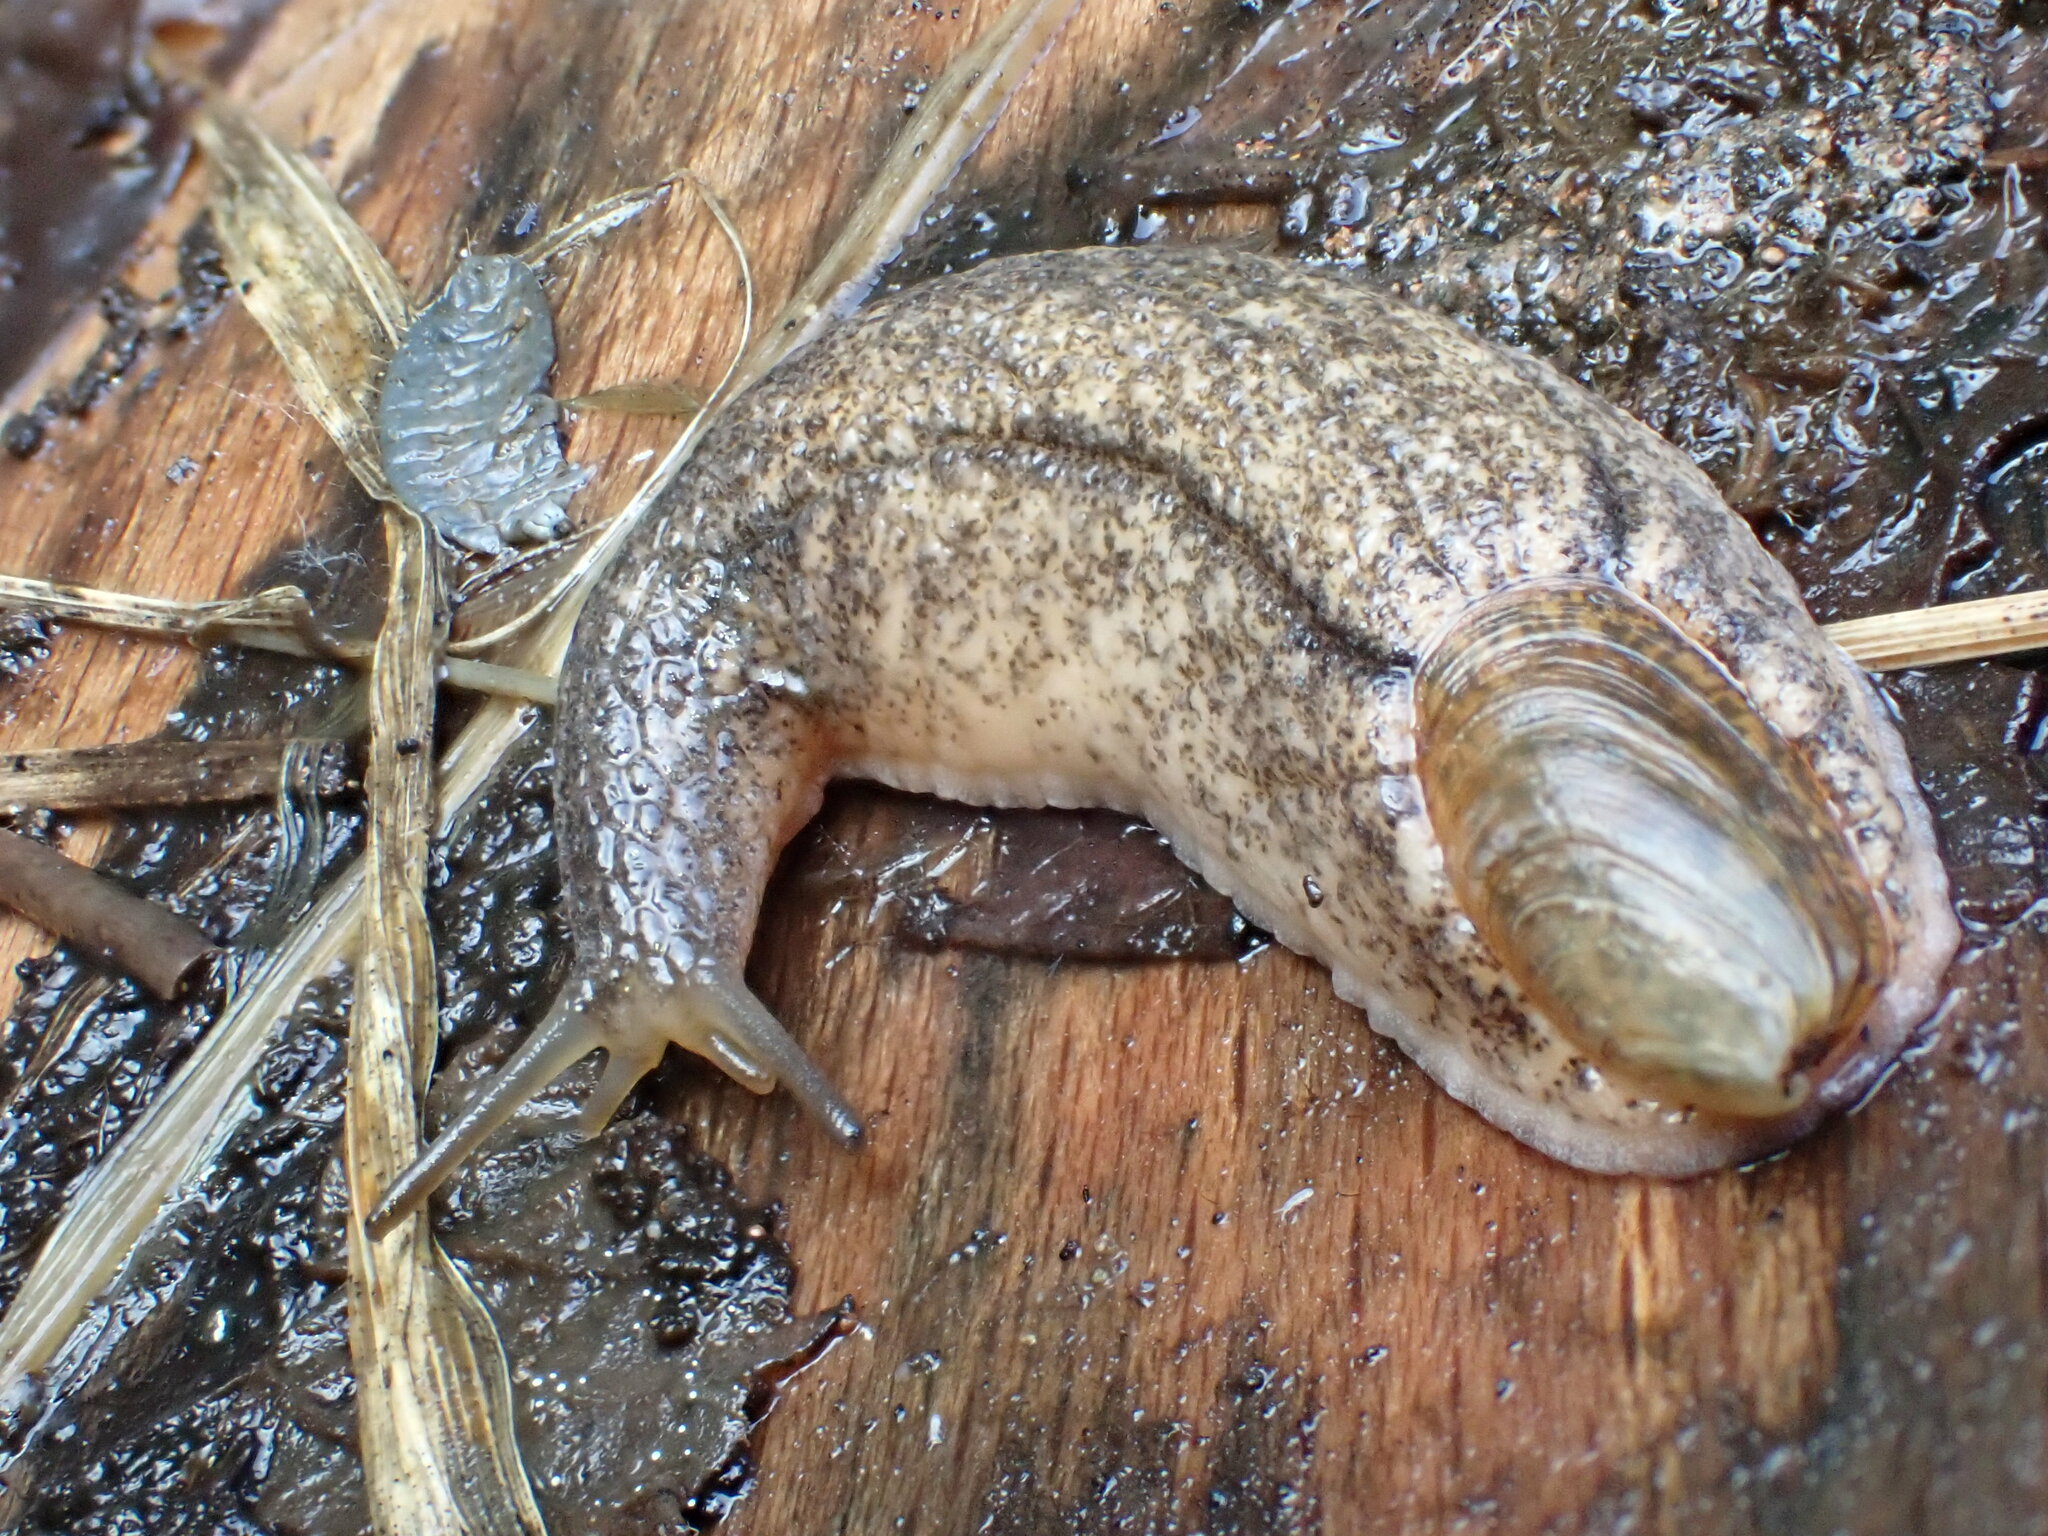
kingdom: Animalia
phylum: Mollusca
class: Gastropoda
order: Stylommatophora
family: Testacellidae
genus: Testacella
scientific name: Testacella maugei
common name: Mauge's slug
